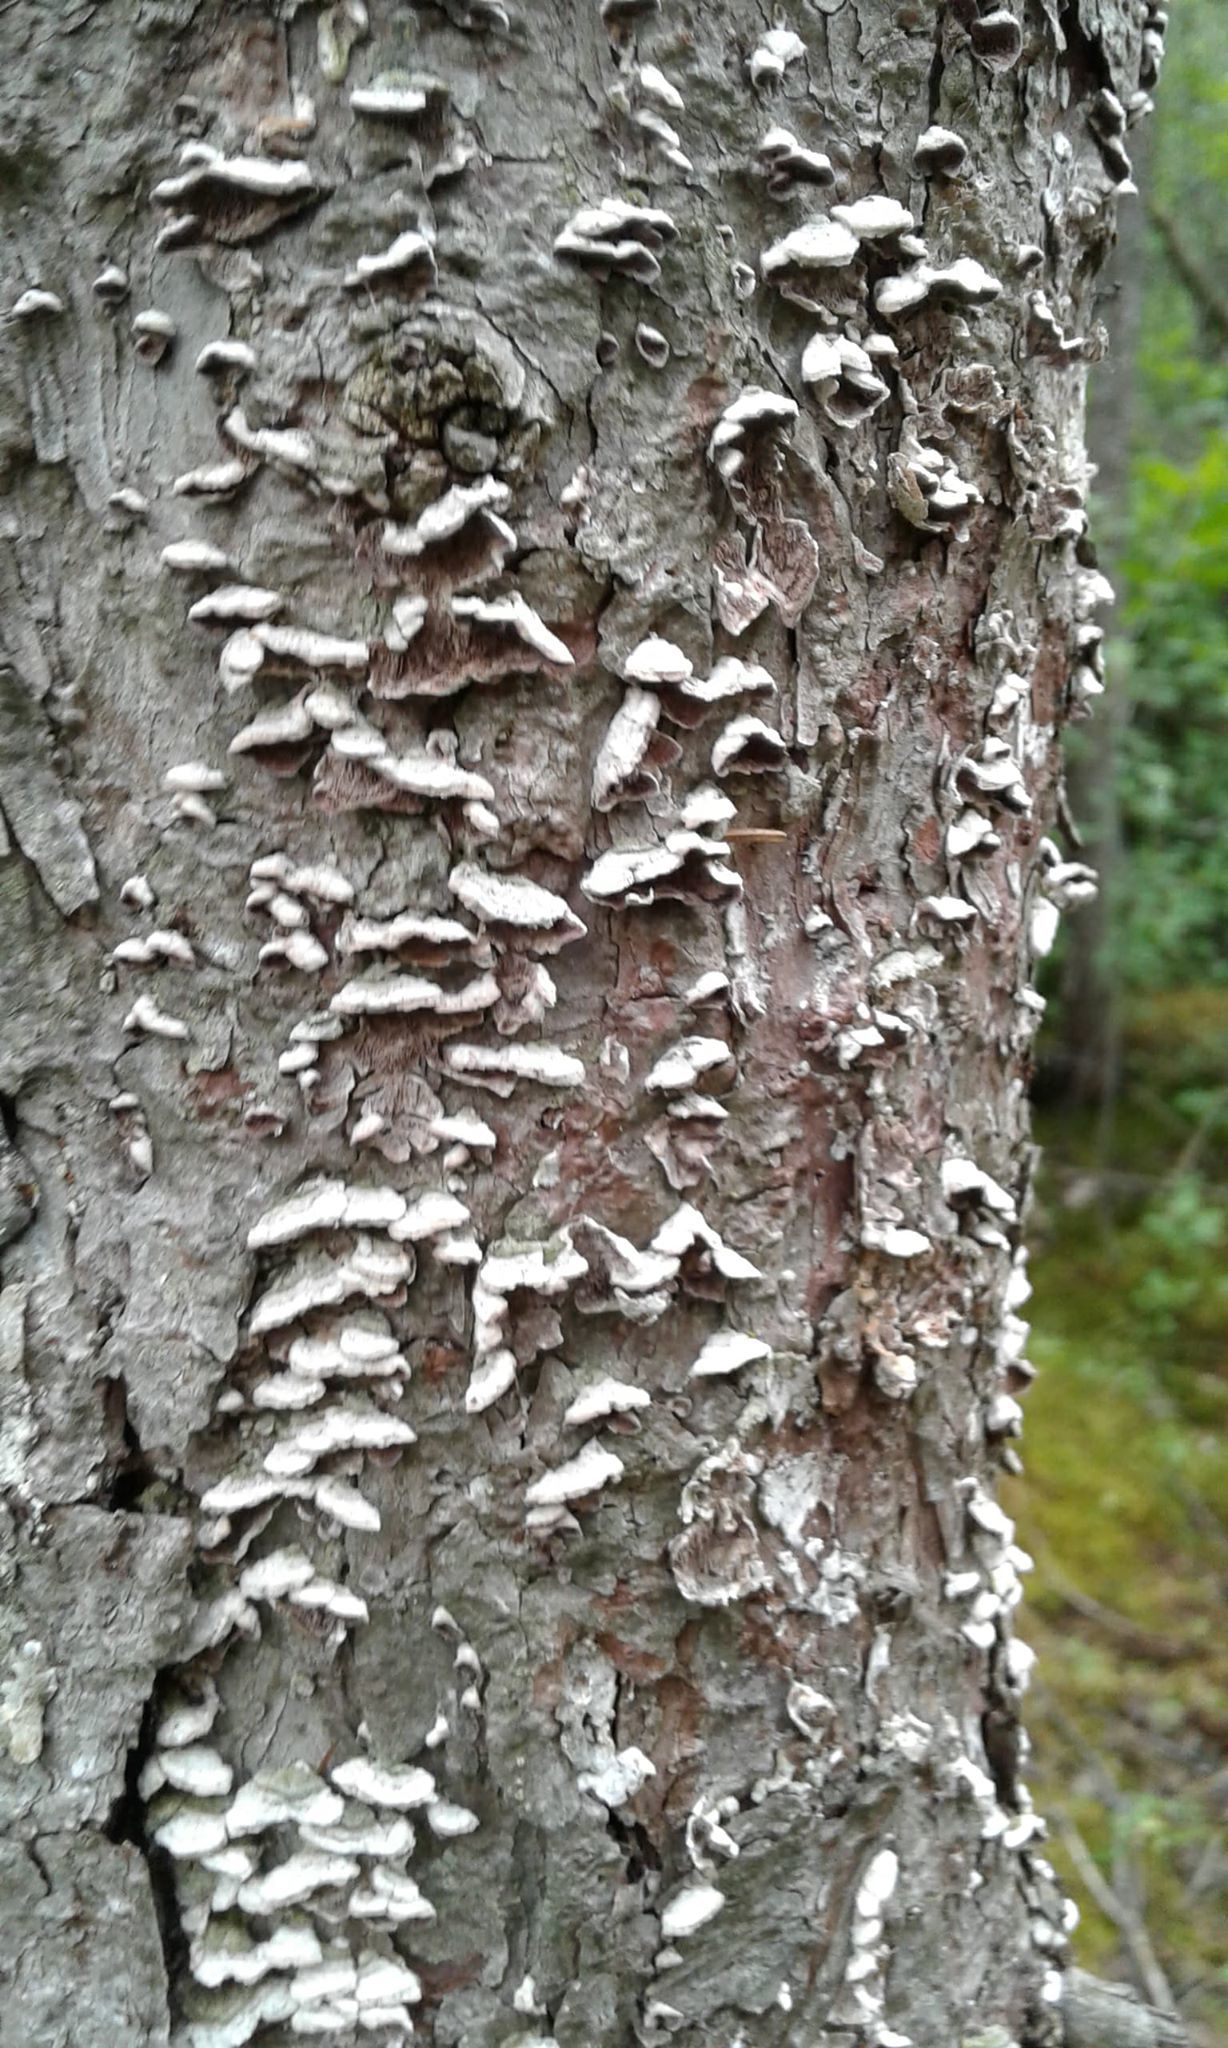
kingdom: Fungi
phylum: Basidiomycota
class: Agaricomycetes
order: Hymenochaetales
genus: Trichaptum
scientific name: Trichaptum abietinum
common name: Purplepore bracket
